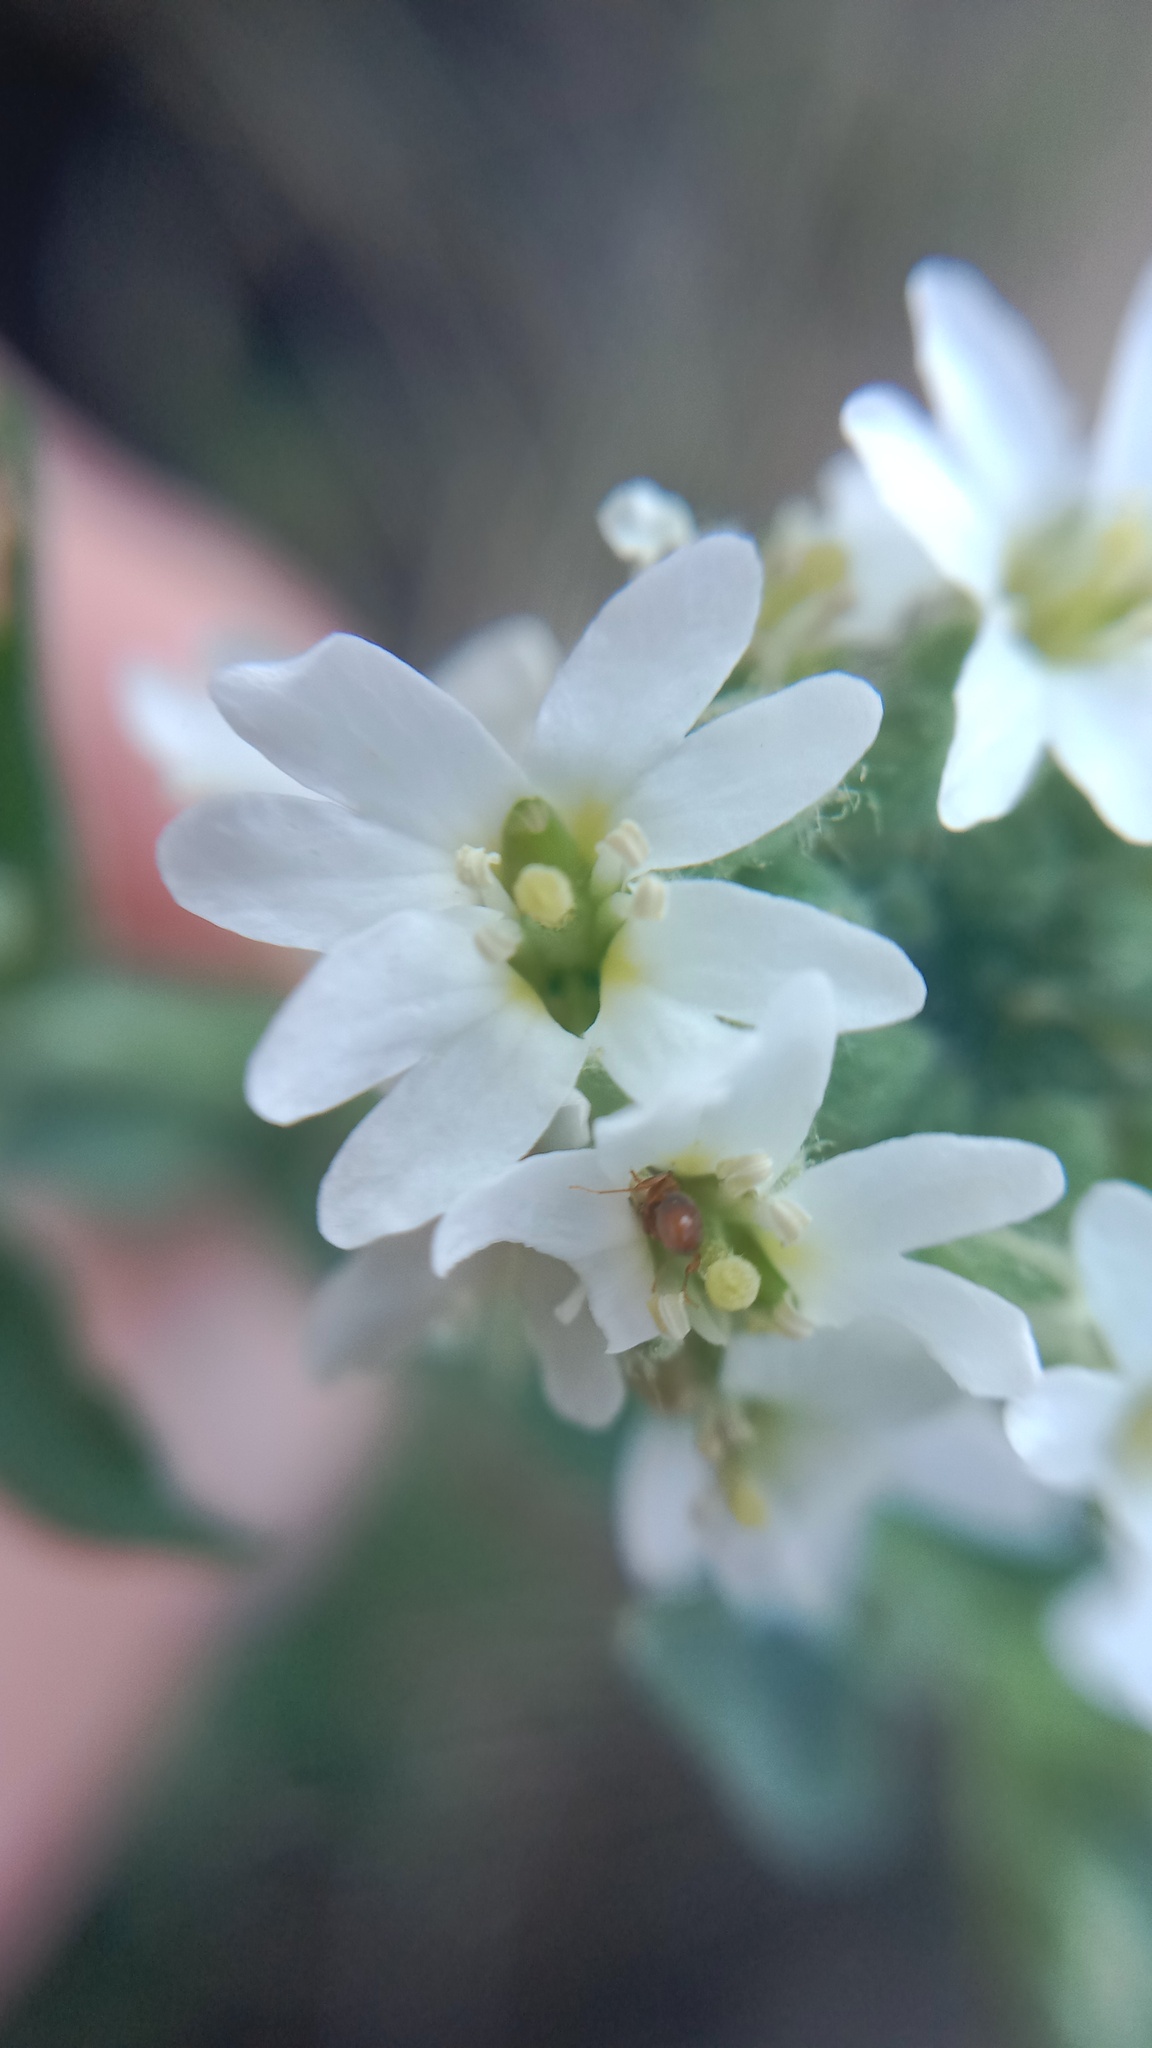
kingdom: Plantae
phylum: Tracheophyta
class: Magnoliopsida
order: Brassicales
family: Brassicaceae
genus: Berteroa
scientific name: Berteroa incana
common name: Hoary alison
